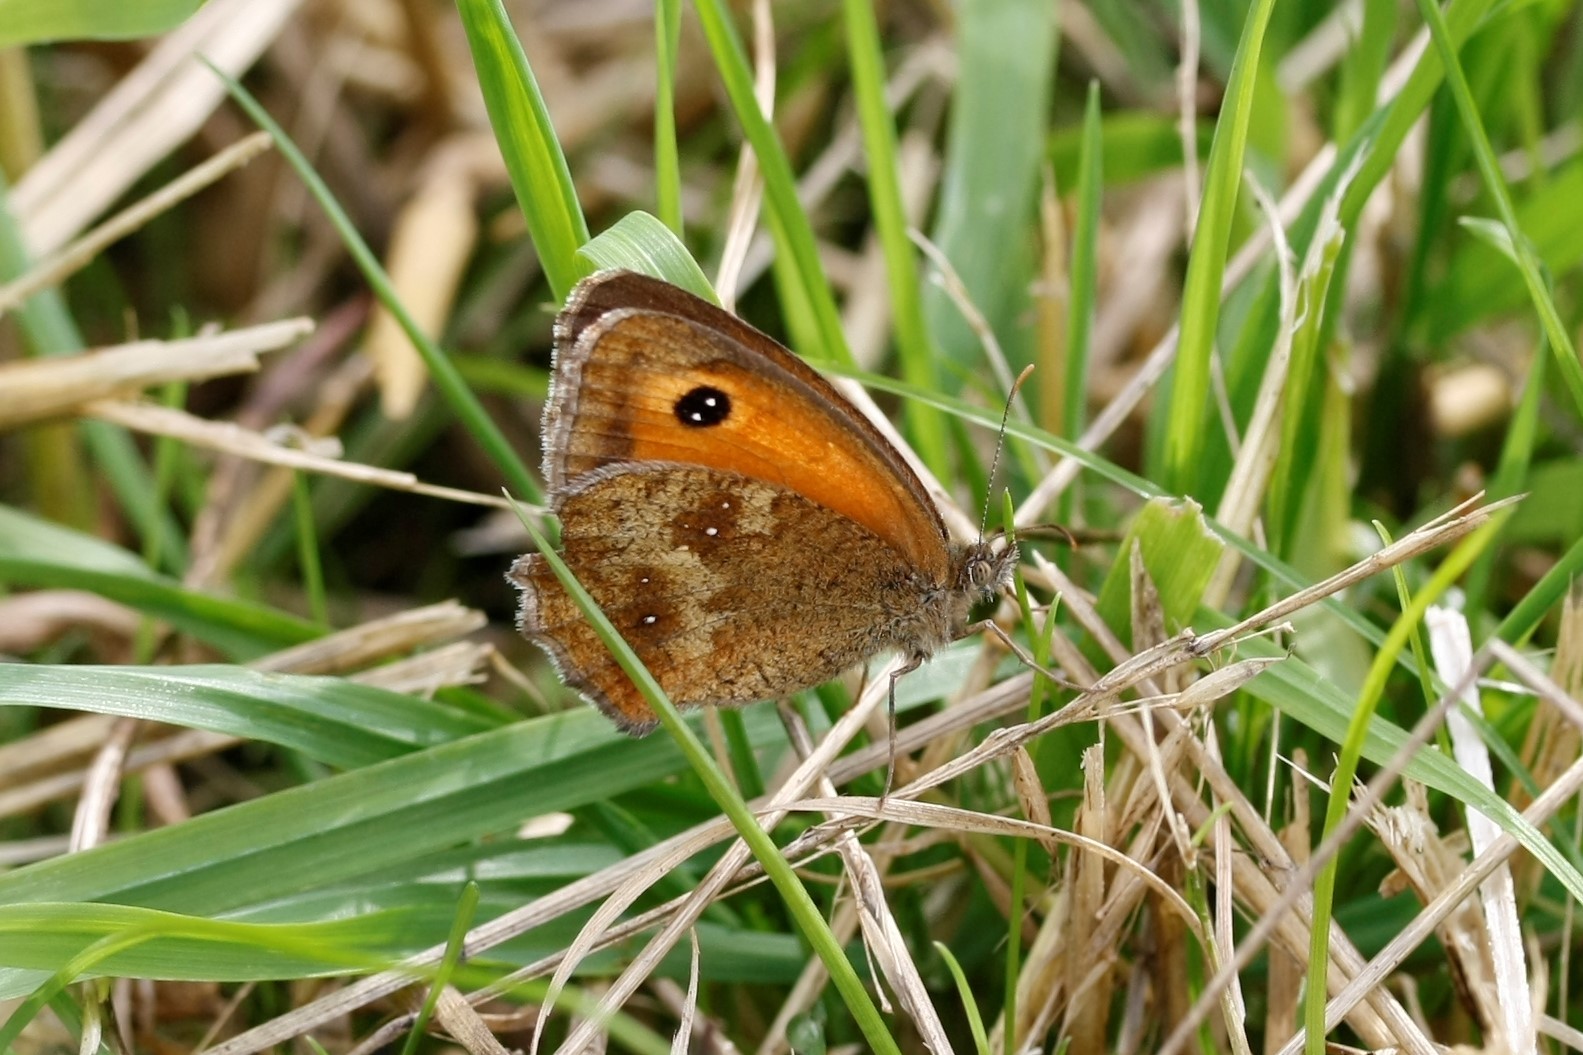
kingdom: Animalia
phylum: Arthropoda
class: Insecta
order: Lepidoptera
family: Nymphalidae
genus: Pyronia
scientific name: Pyronia tithonus
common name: Gatekeeper
